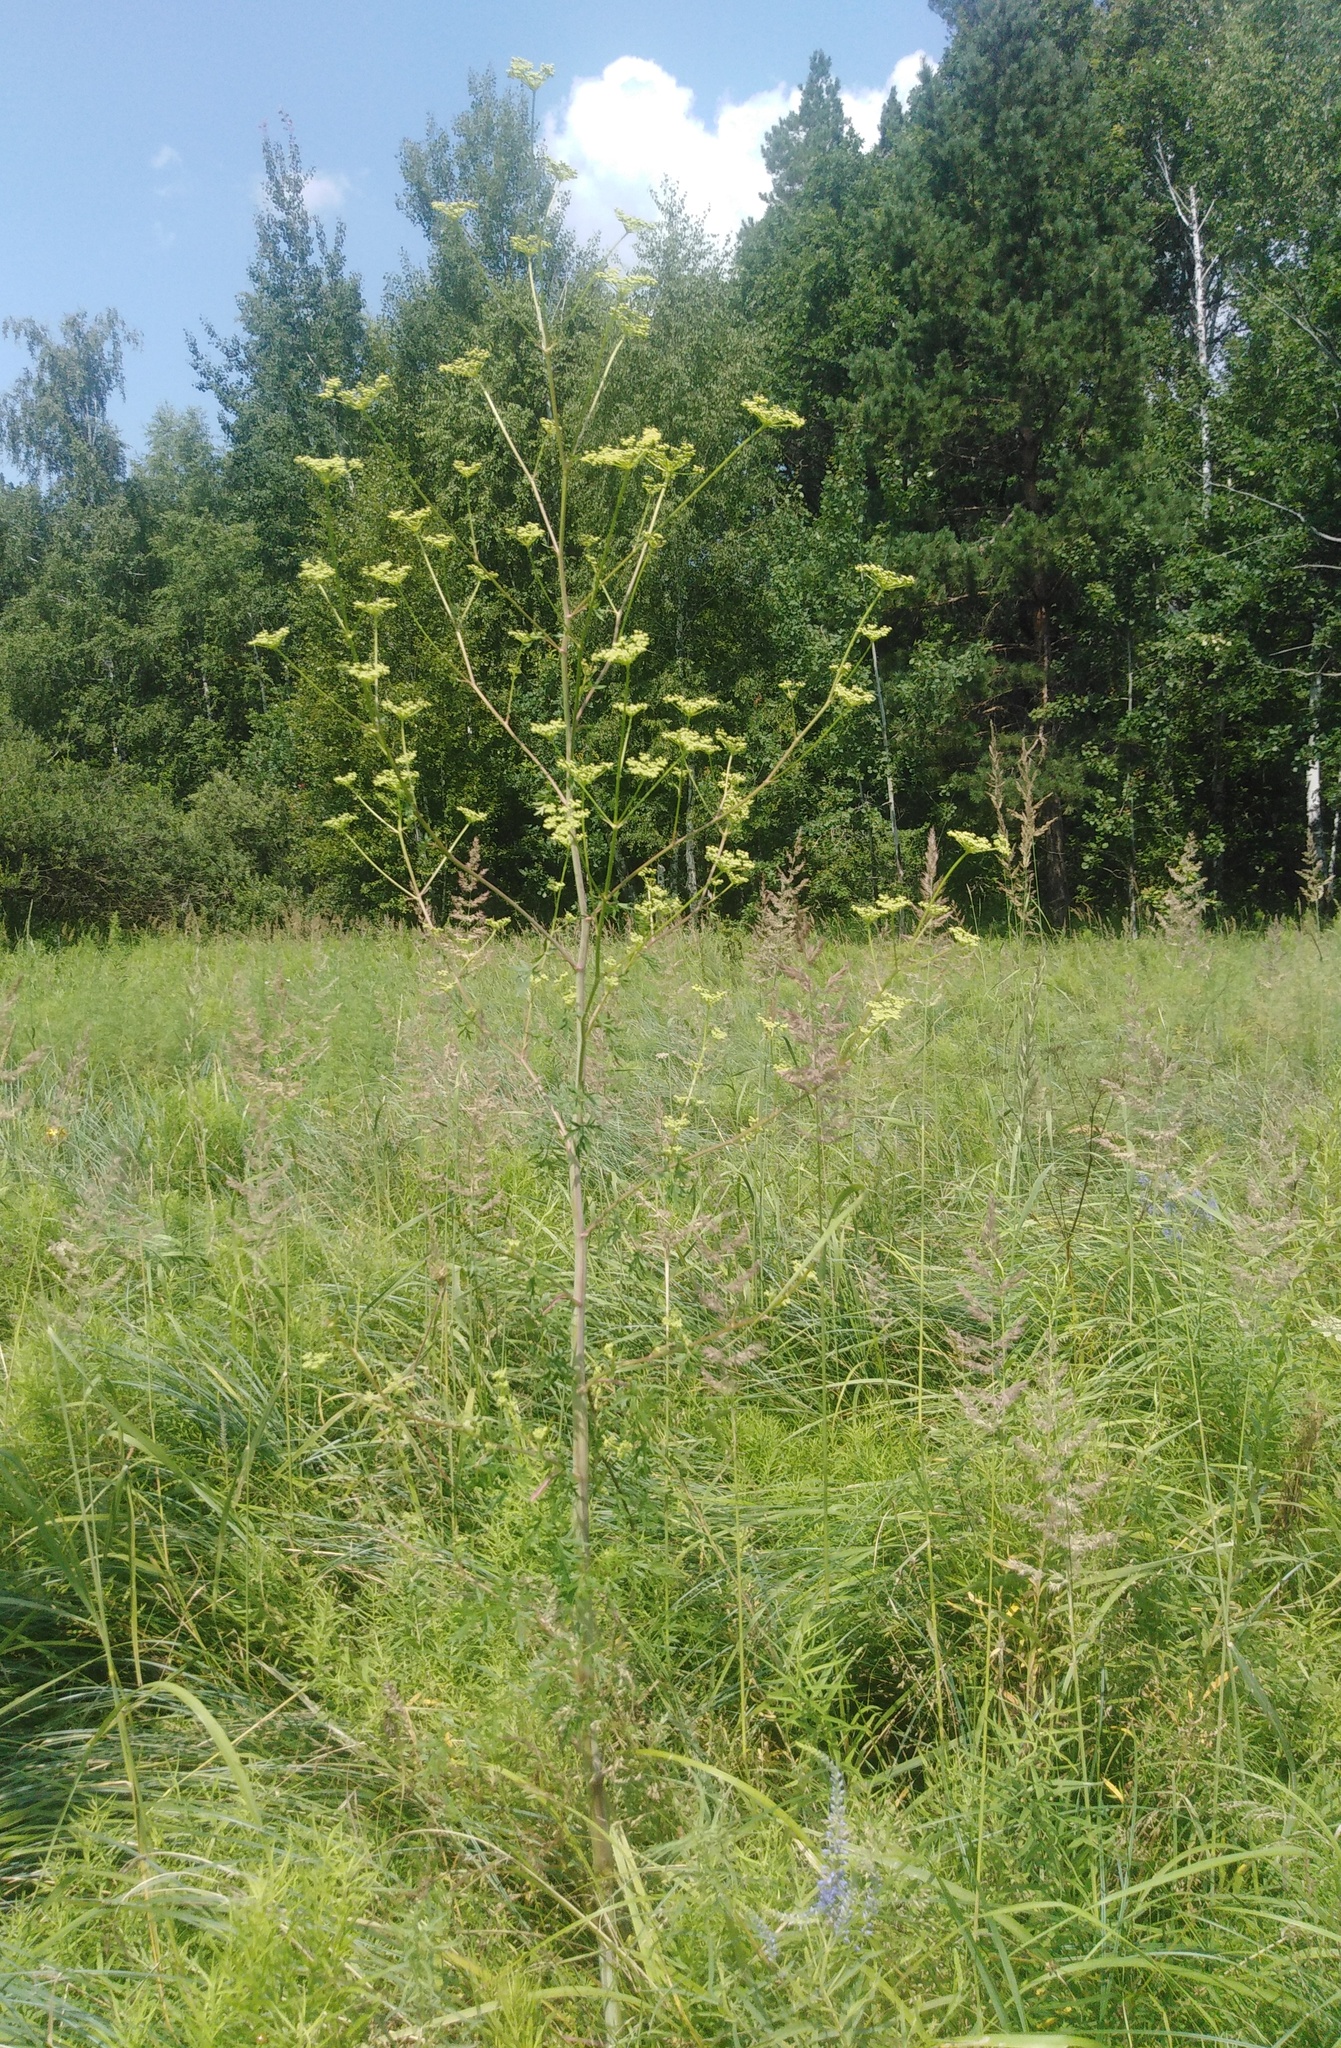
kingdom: Plantae
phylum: Tracheophyta
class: Magnoliopsida
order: Apiales
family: Apiaceae
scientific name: Apiaceae
